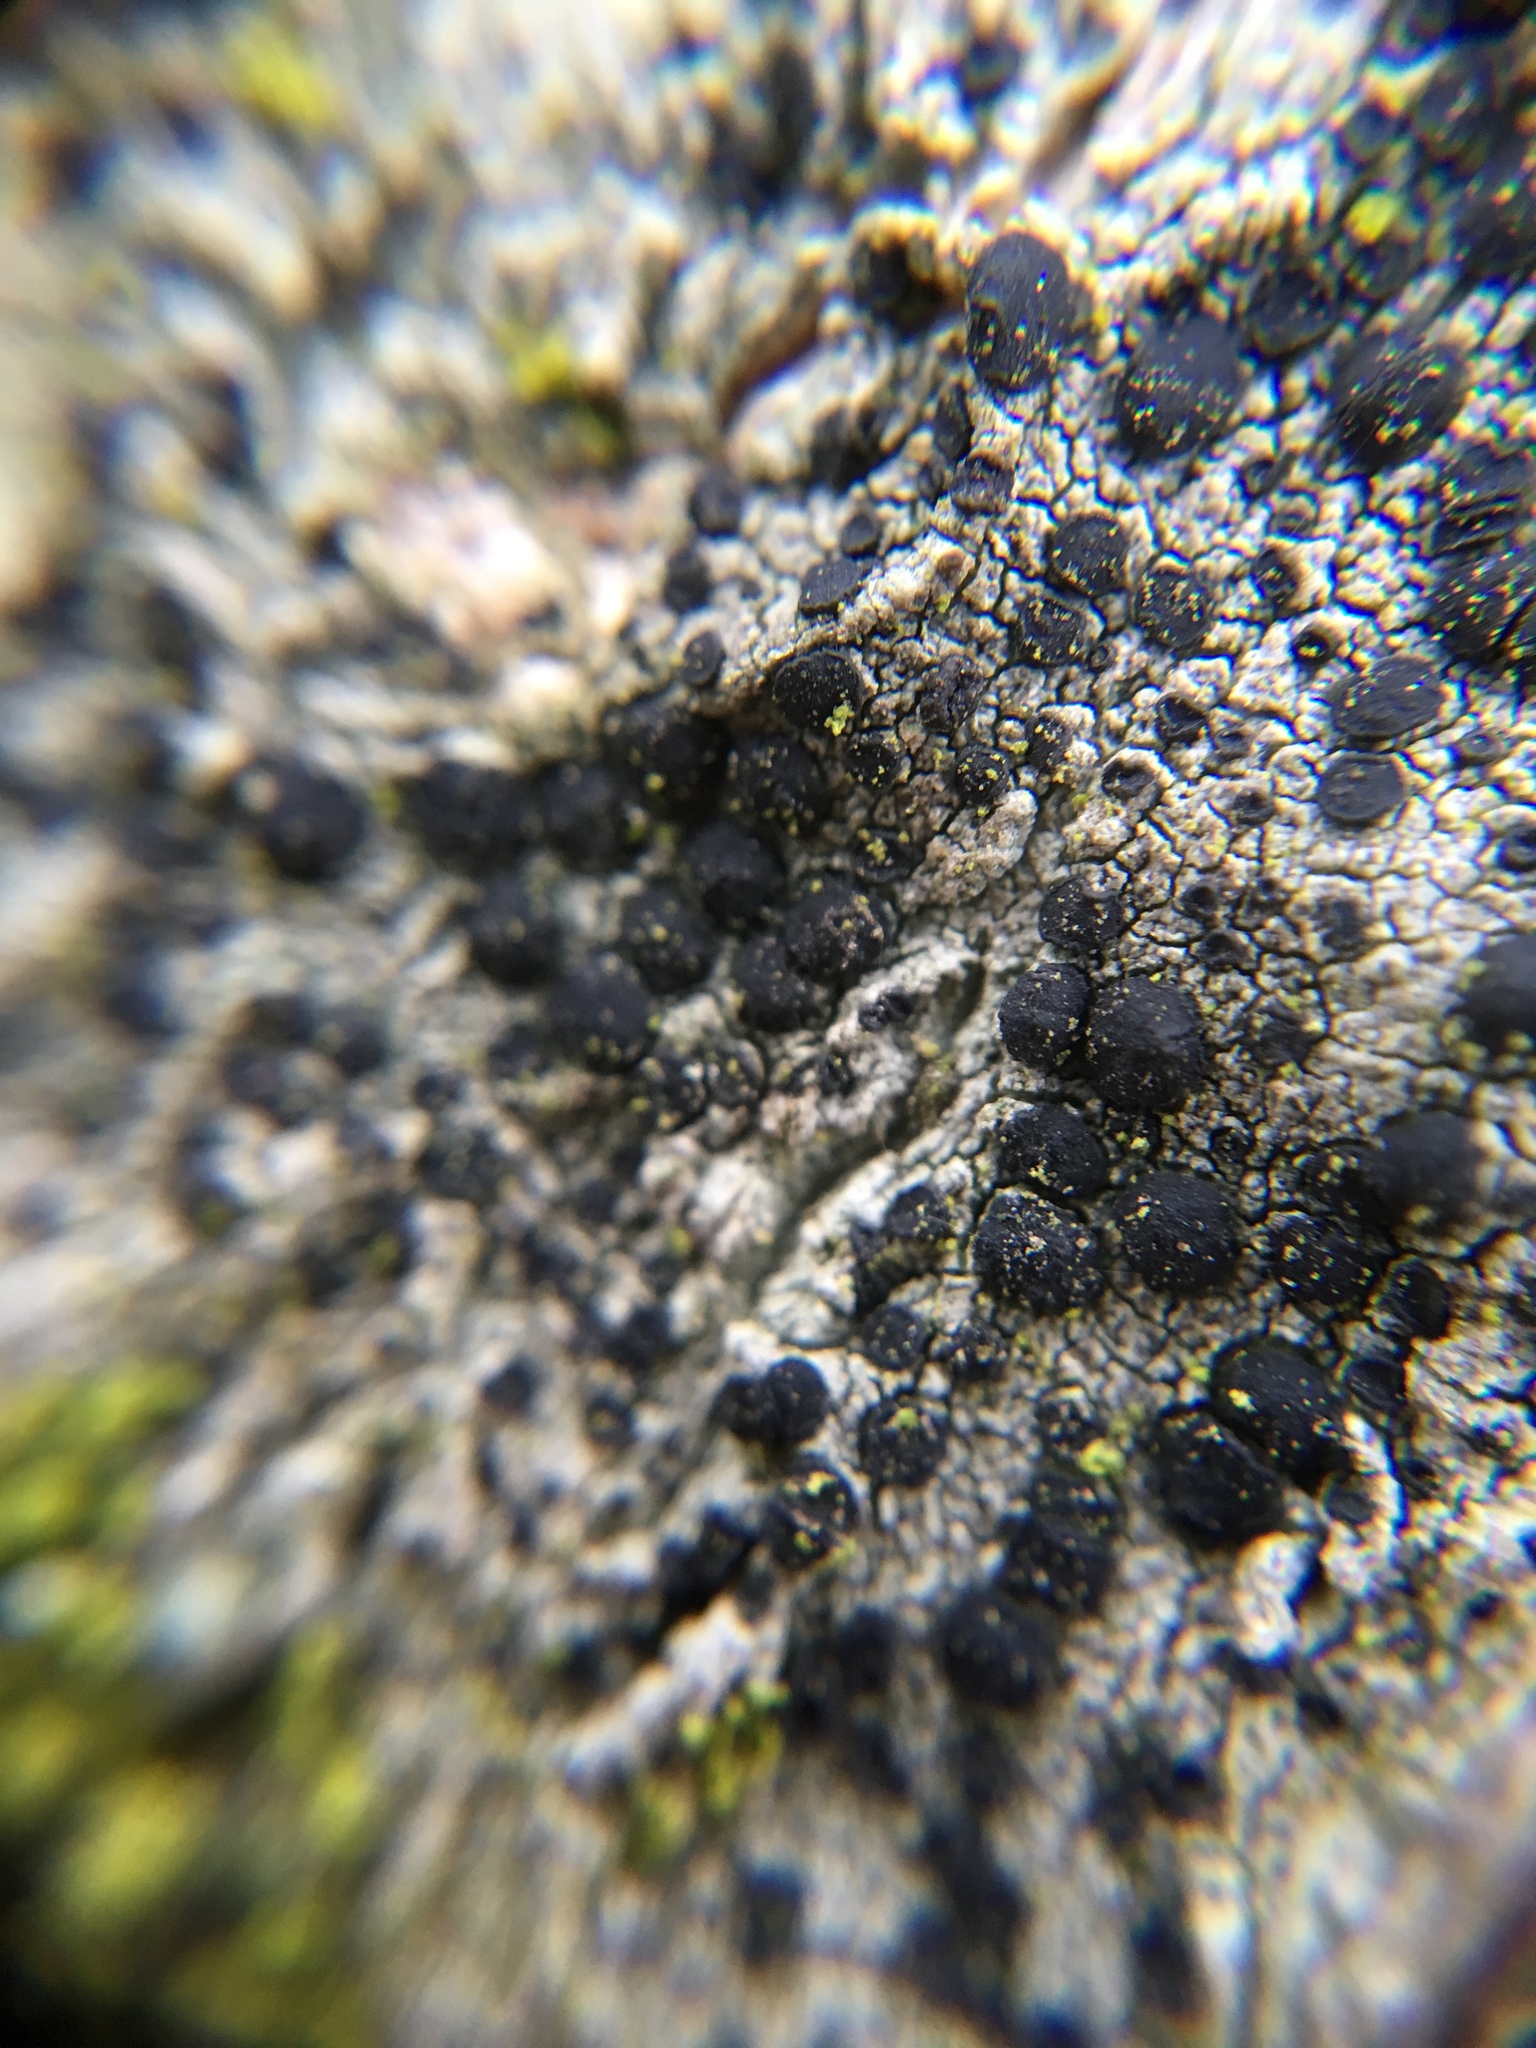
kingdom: Fungi
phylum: Ascomycota
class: Lecanoromycetes
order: Lecanorales
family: Lecanoraceae
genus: Lecidella
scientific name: Lecidella elaeochroma
